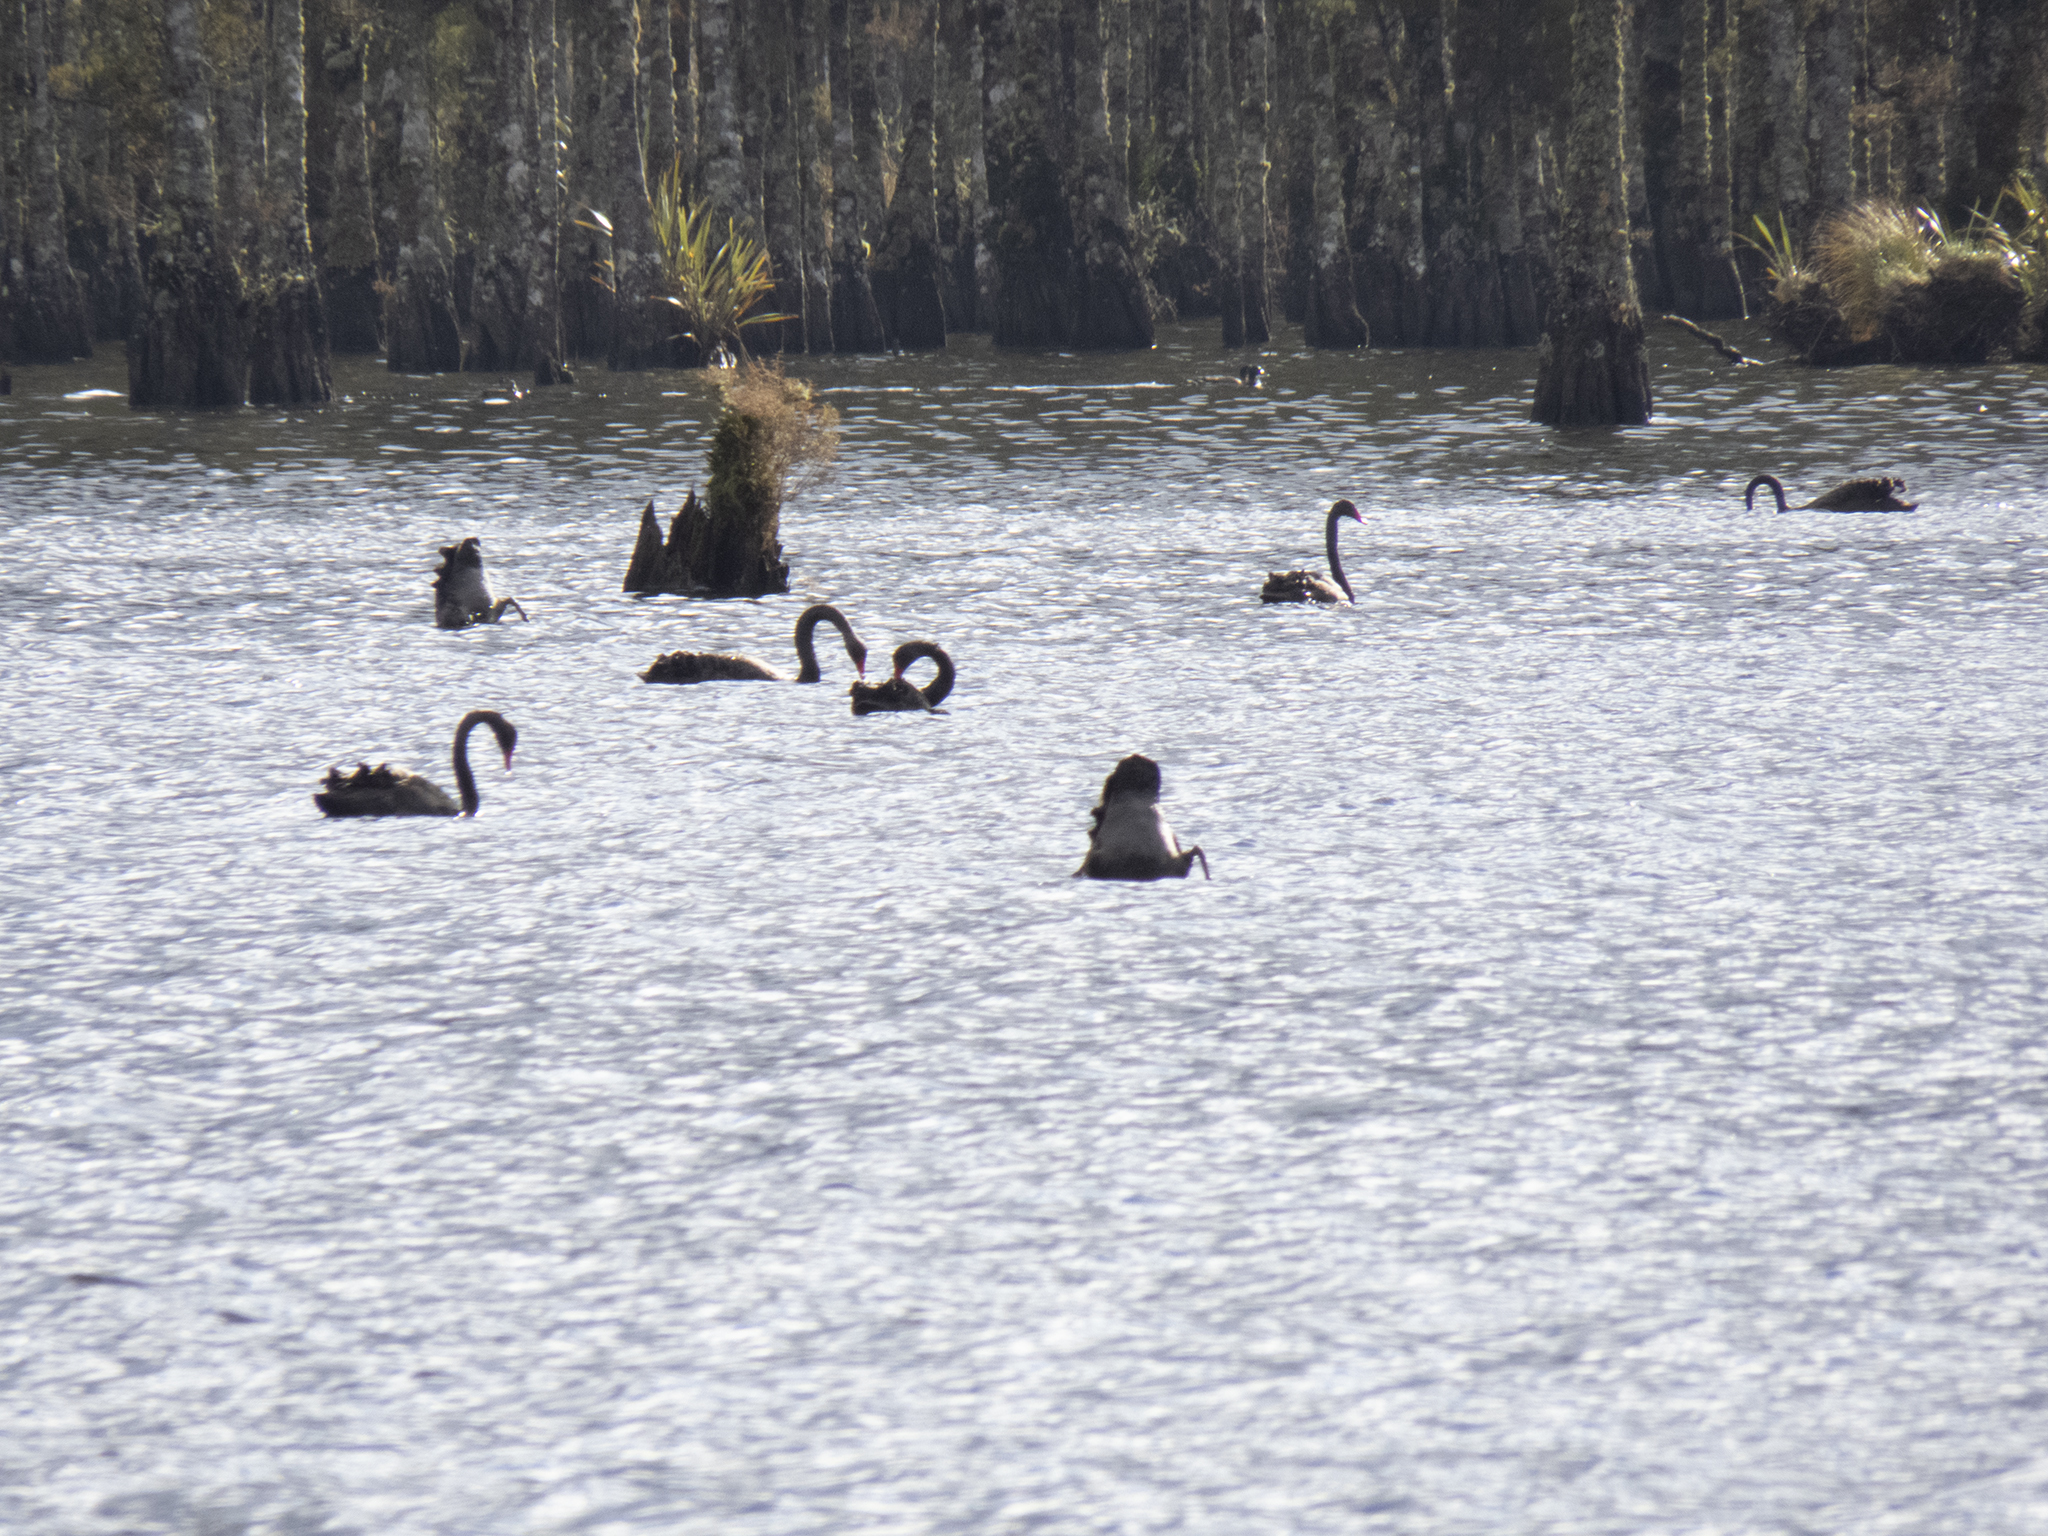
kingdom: Animalia
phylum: Chordata
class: Aves
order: Anseriformes
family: Anatidae
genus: Cygnus
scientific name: Cygnus atratus
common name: Black swan
